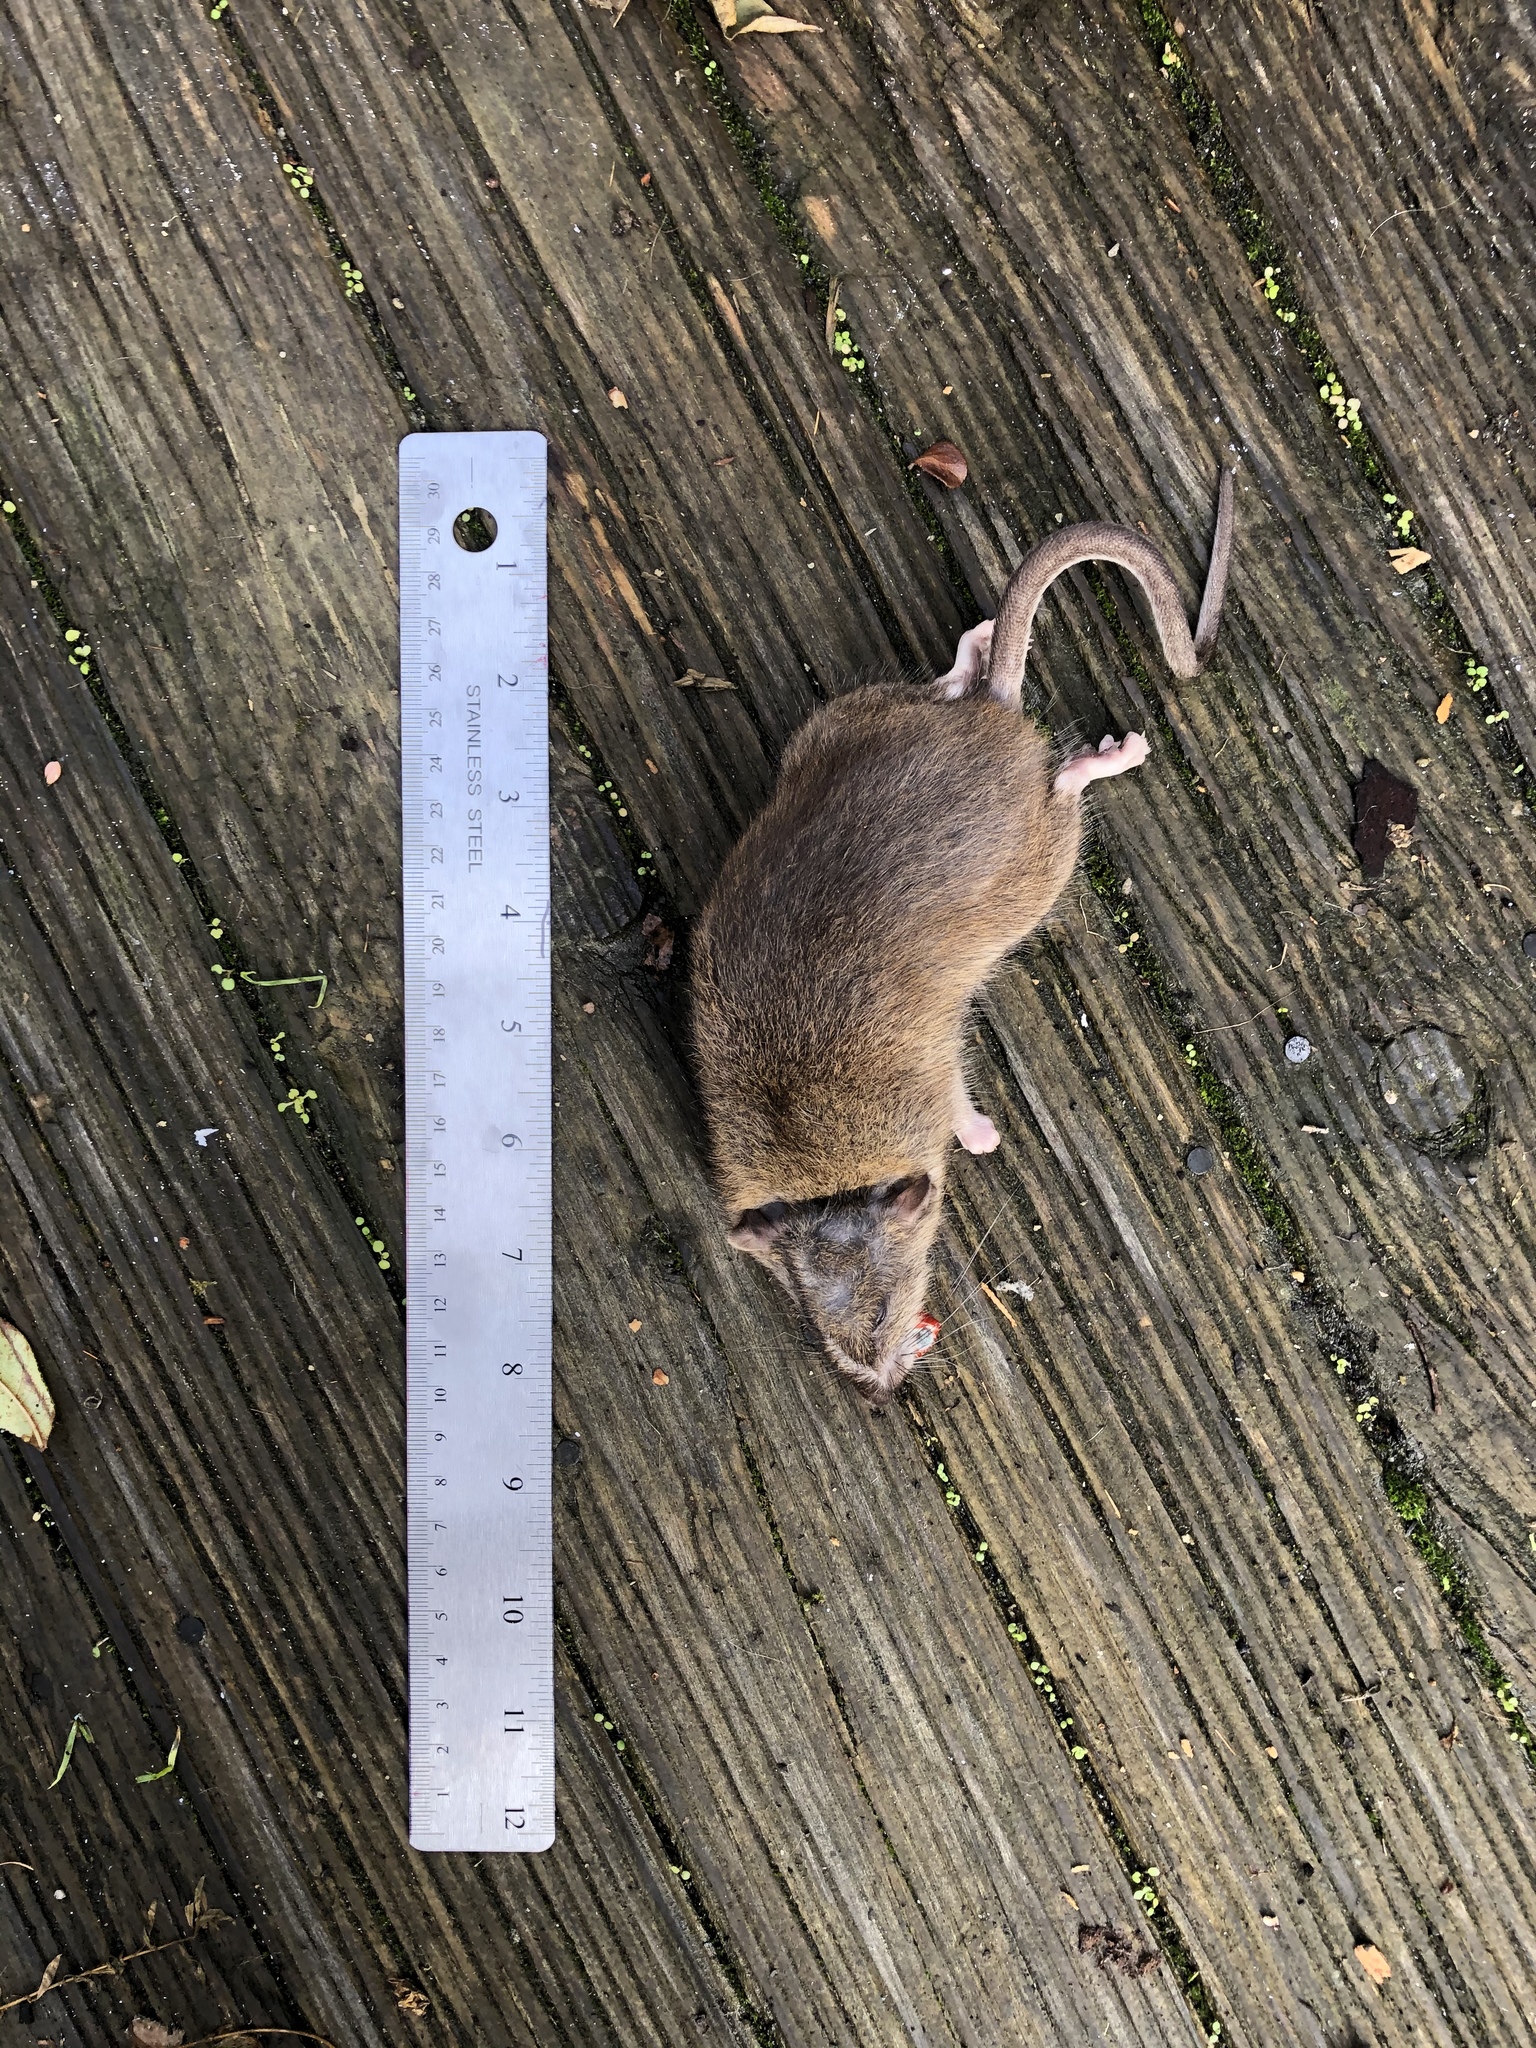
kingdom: Animalia
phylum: Chordata
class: Mammalia
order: Rodentia
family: Muridae
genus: Rattus
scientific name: Rattus norvegicus
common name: Brown rat
